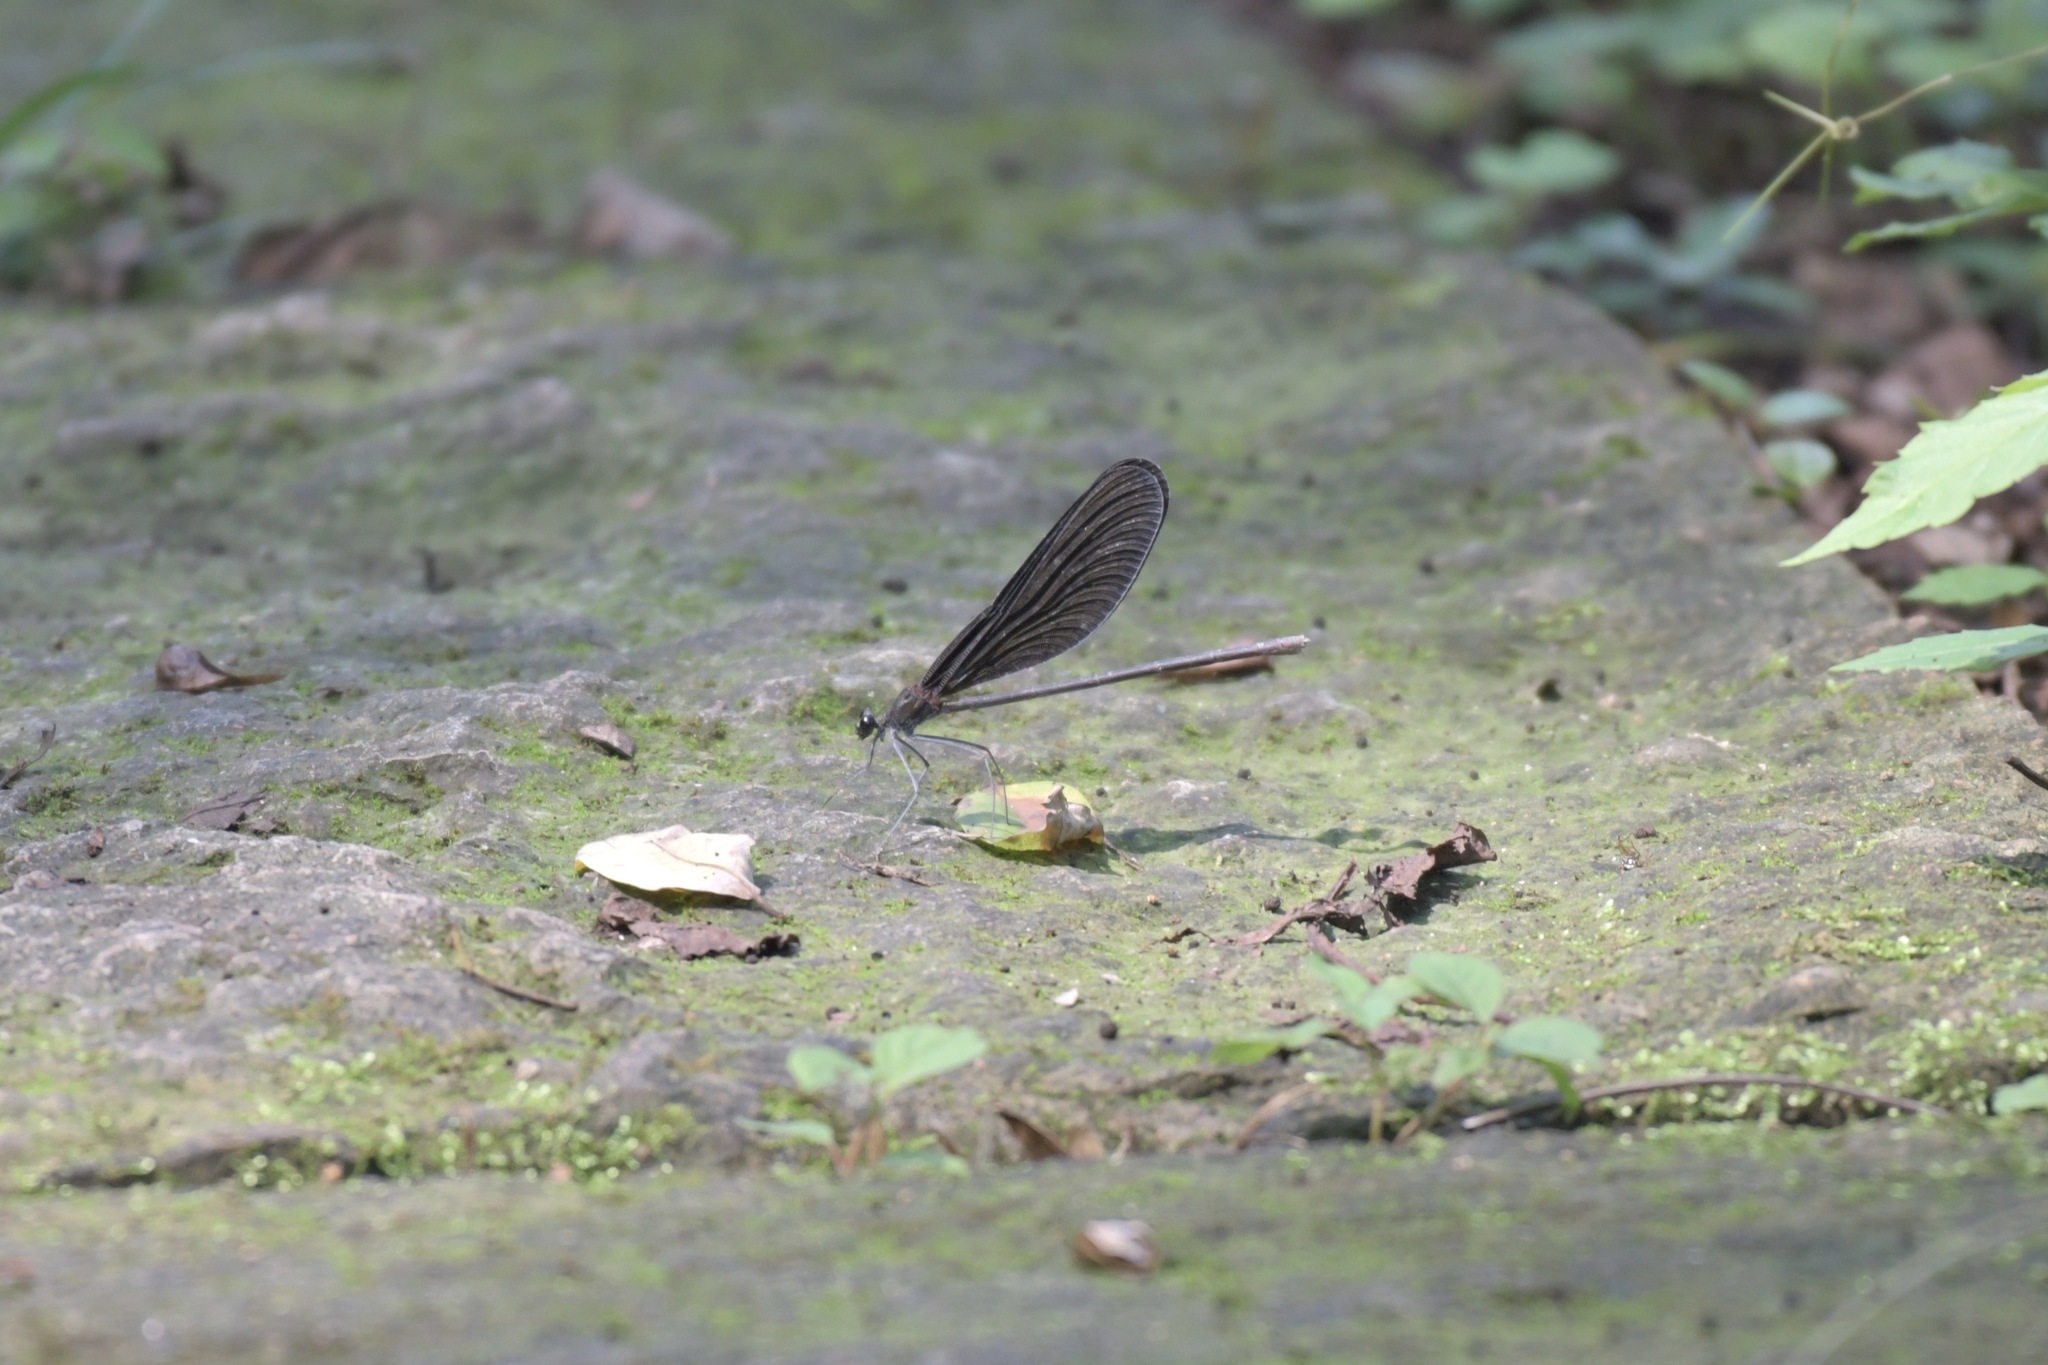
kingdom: Animalia
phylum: Arthropoda
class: Insecta
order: Odonata
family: Calopterygidae
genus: Atrocalopteryx
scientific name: Atrocalopteryx atrata
